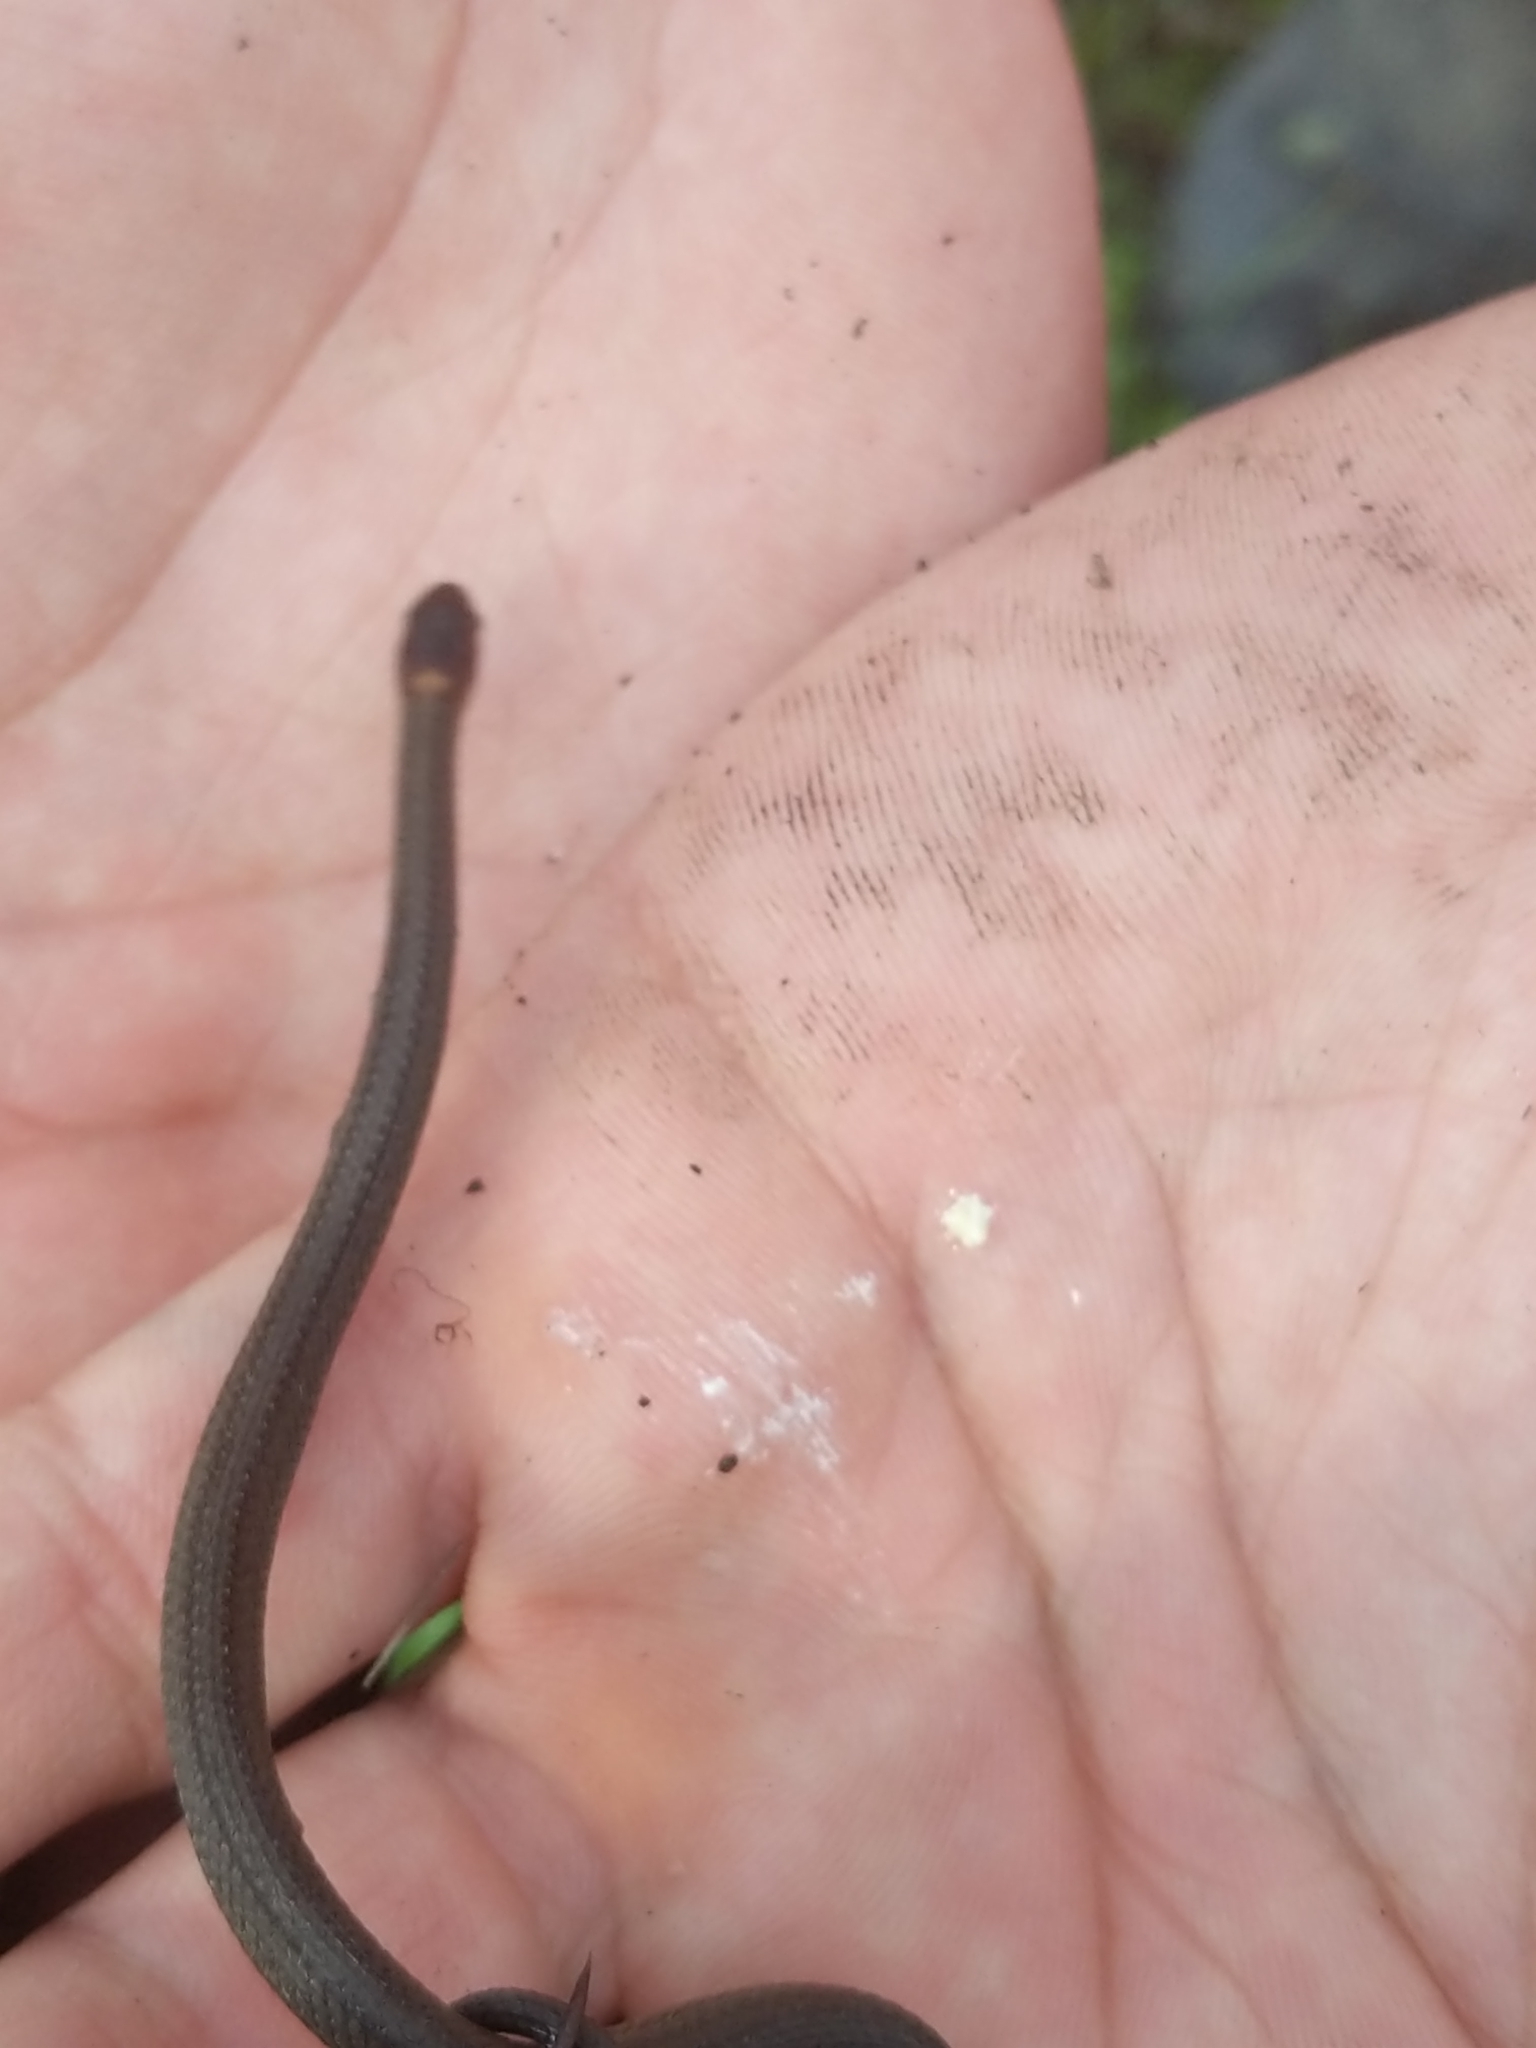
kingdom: Animalia
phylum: Chordata
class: Squamata
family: Colubridae
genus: Storeria
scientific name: Storeria occipitomaculata
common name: Redbelly snake
